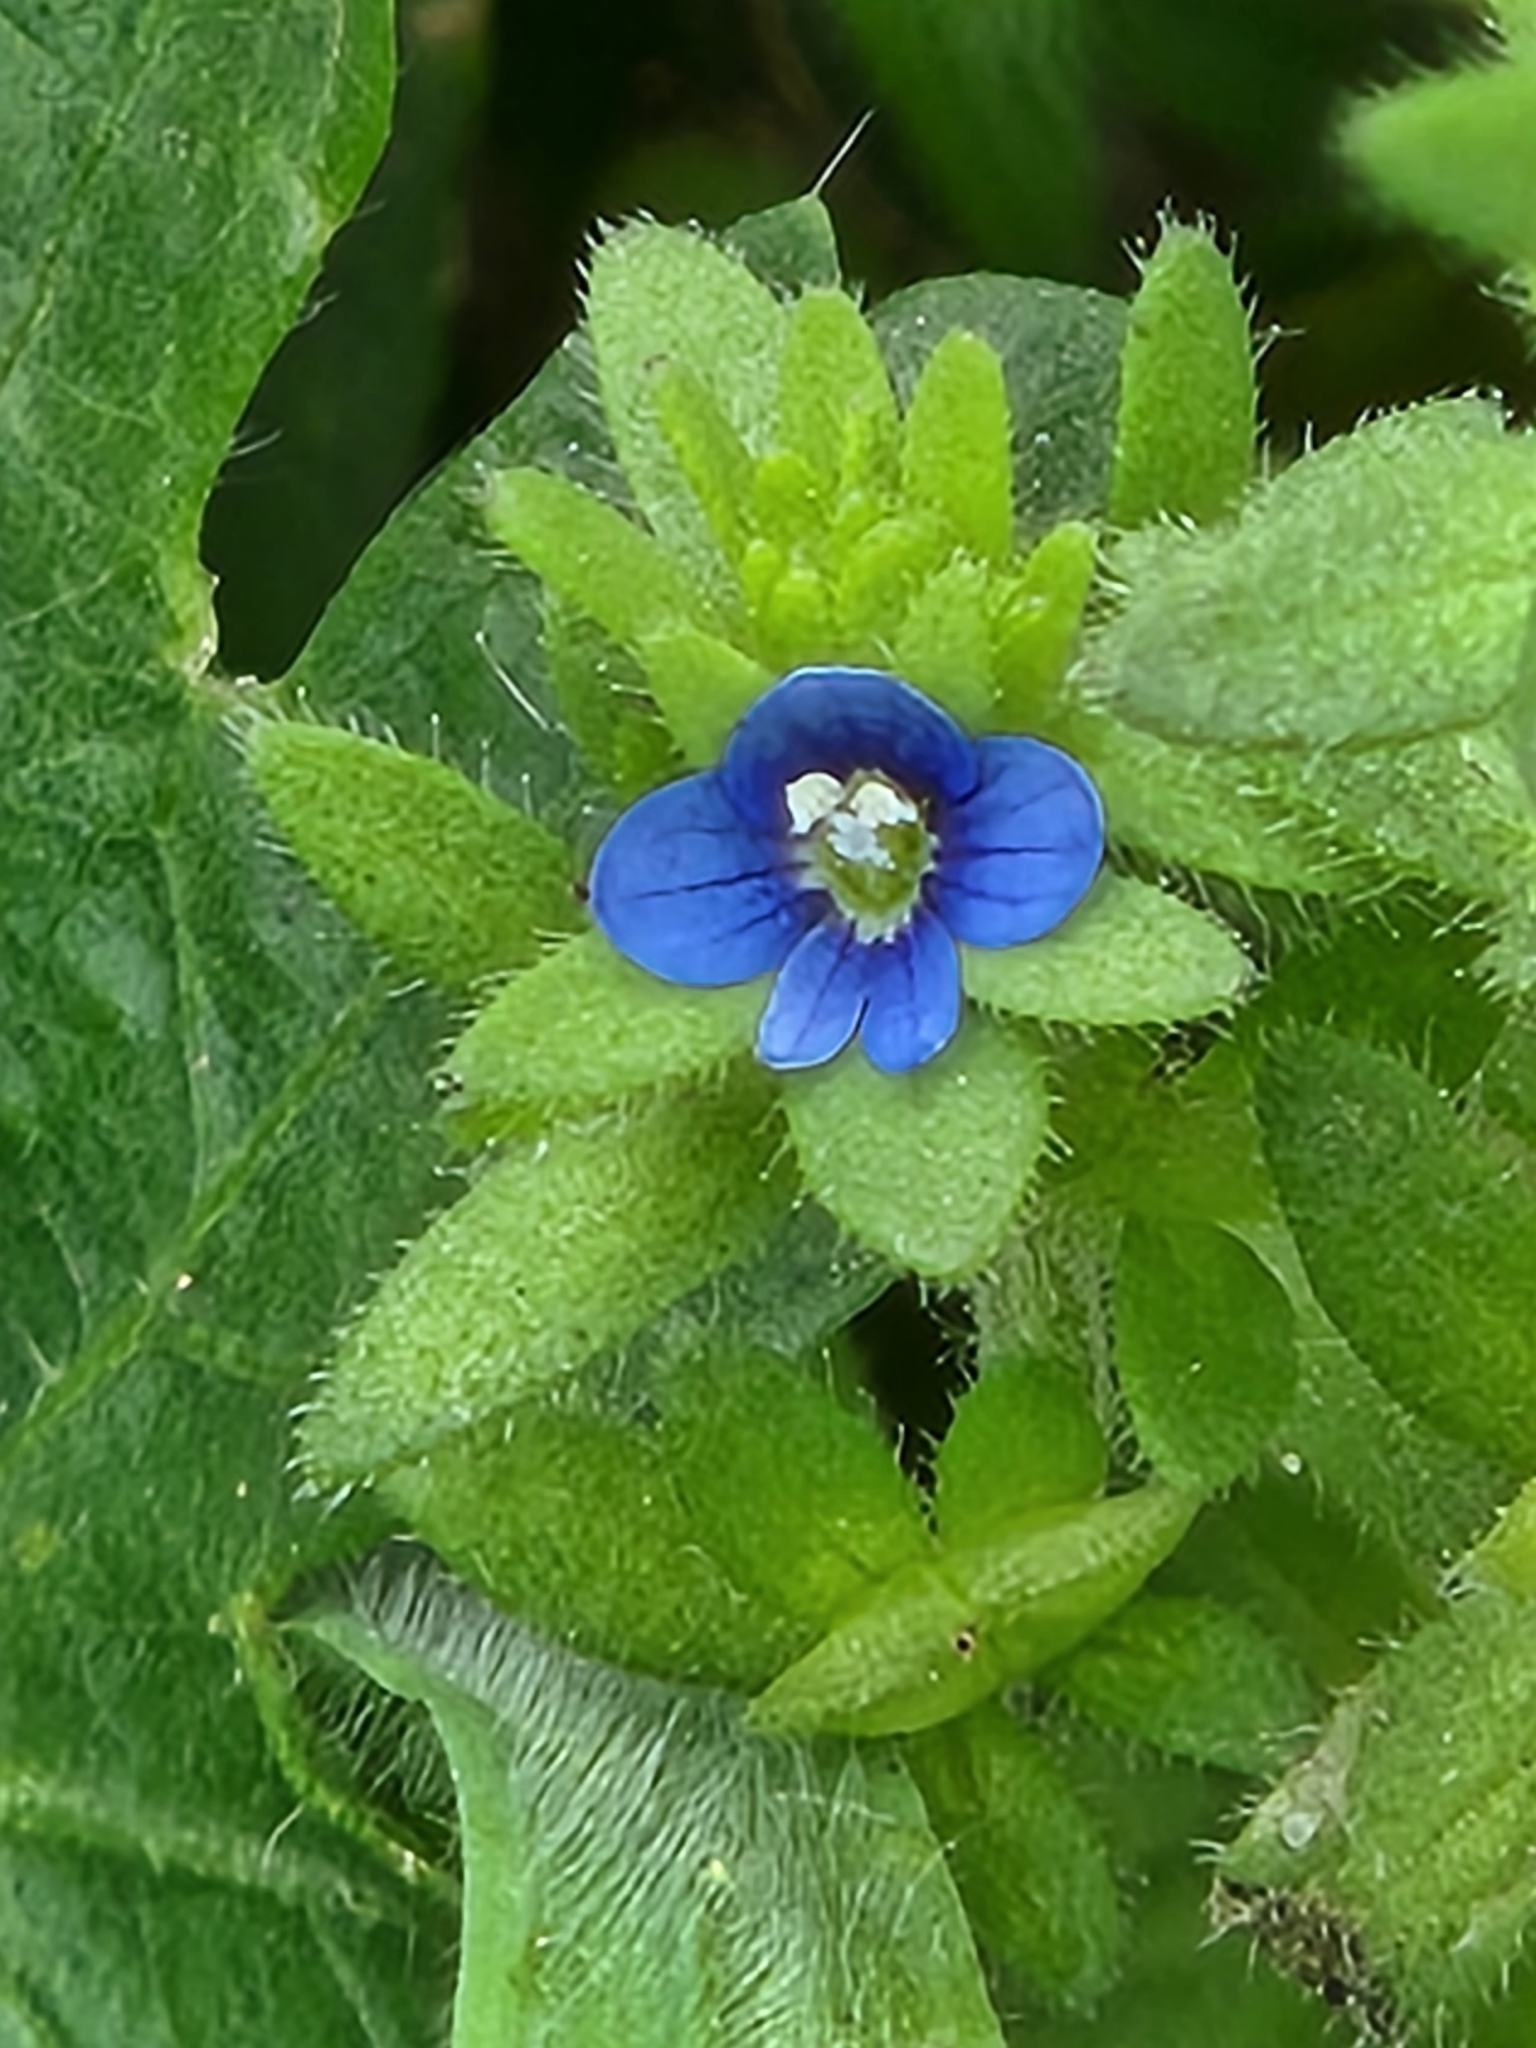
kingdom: Plantae
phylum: Tracheophyta
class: Magnoliopsida
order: Lamiales
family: Plantaginaceae
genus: Veronica
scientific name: Veronica arvensis
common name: Corn speedwell
